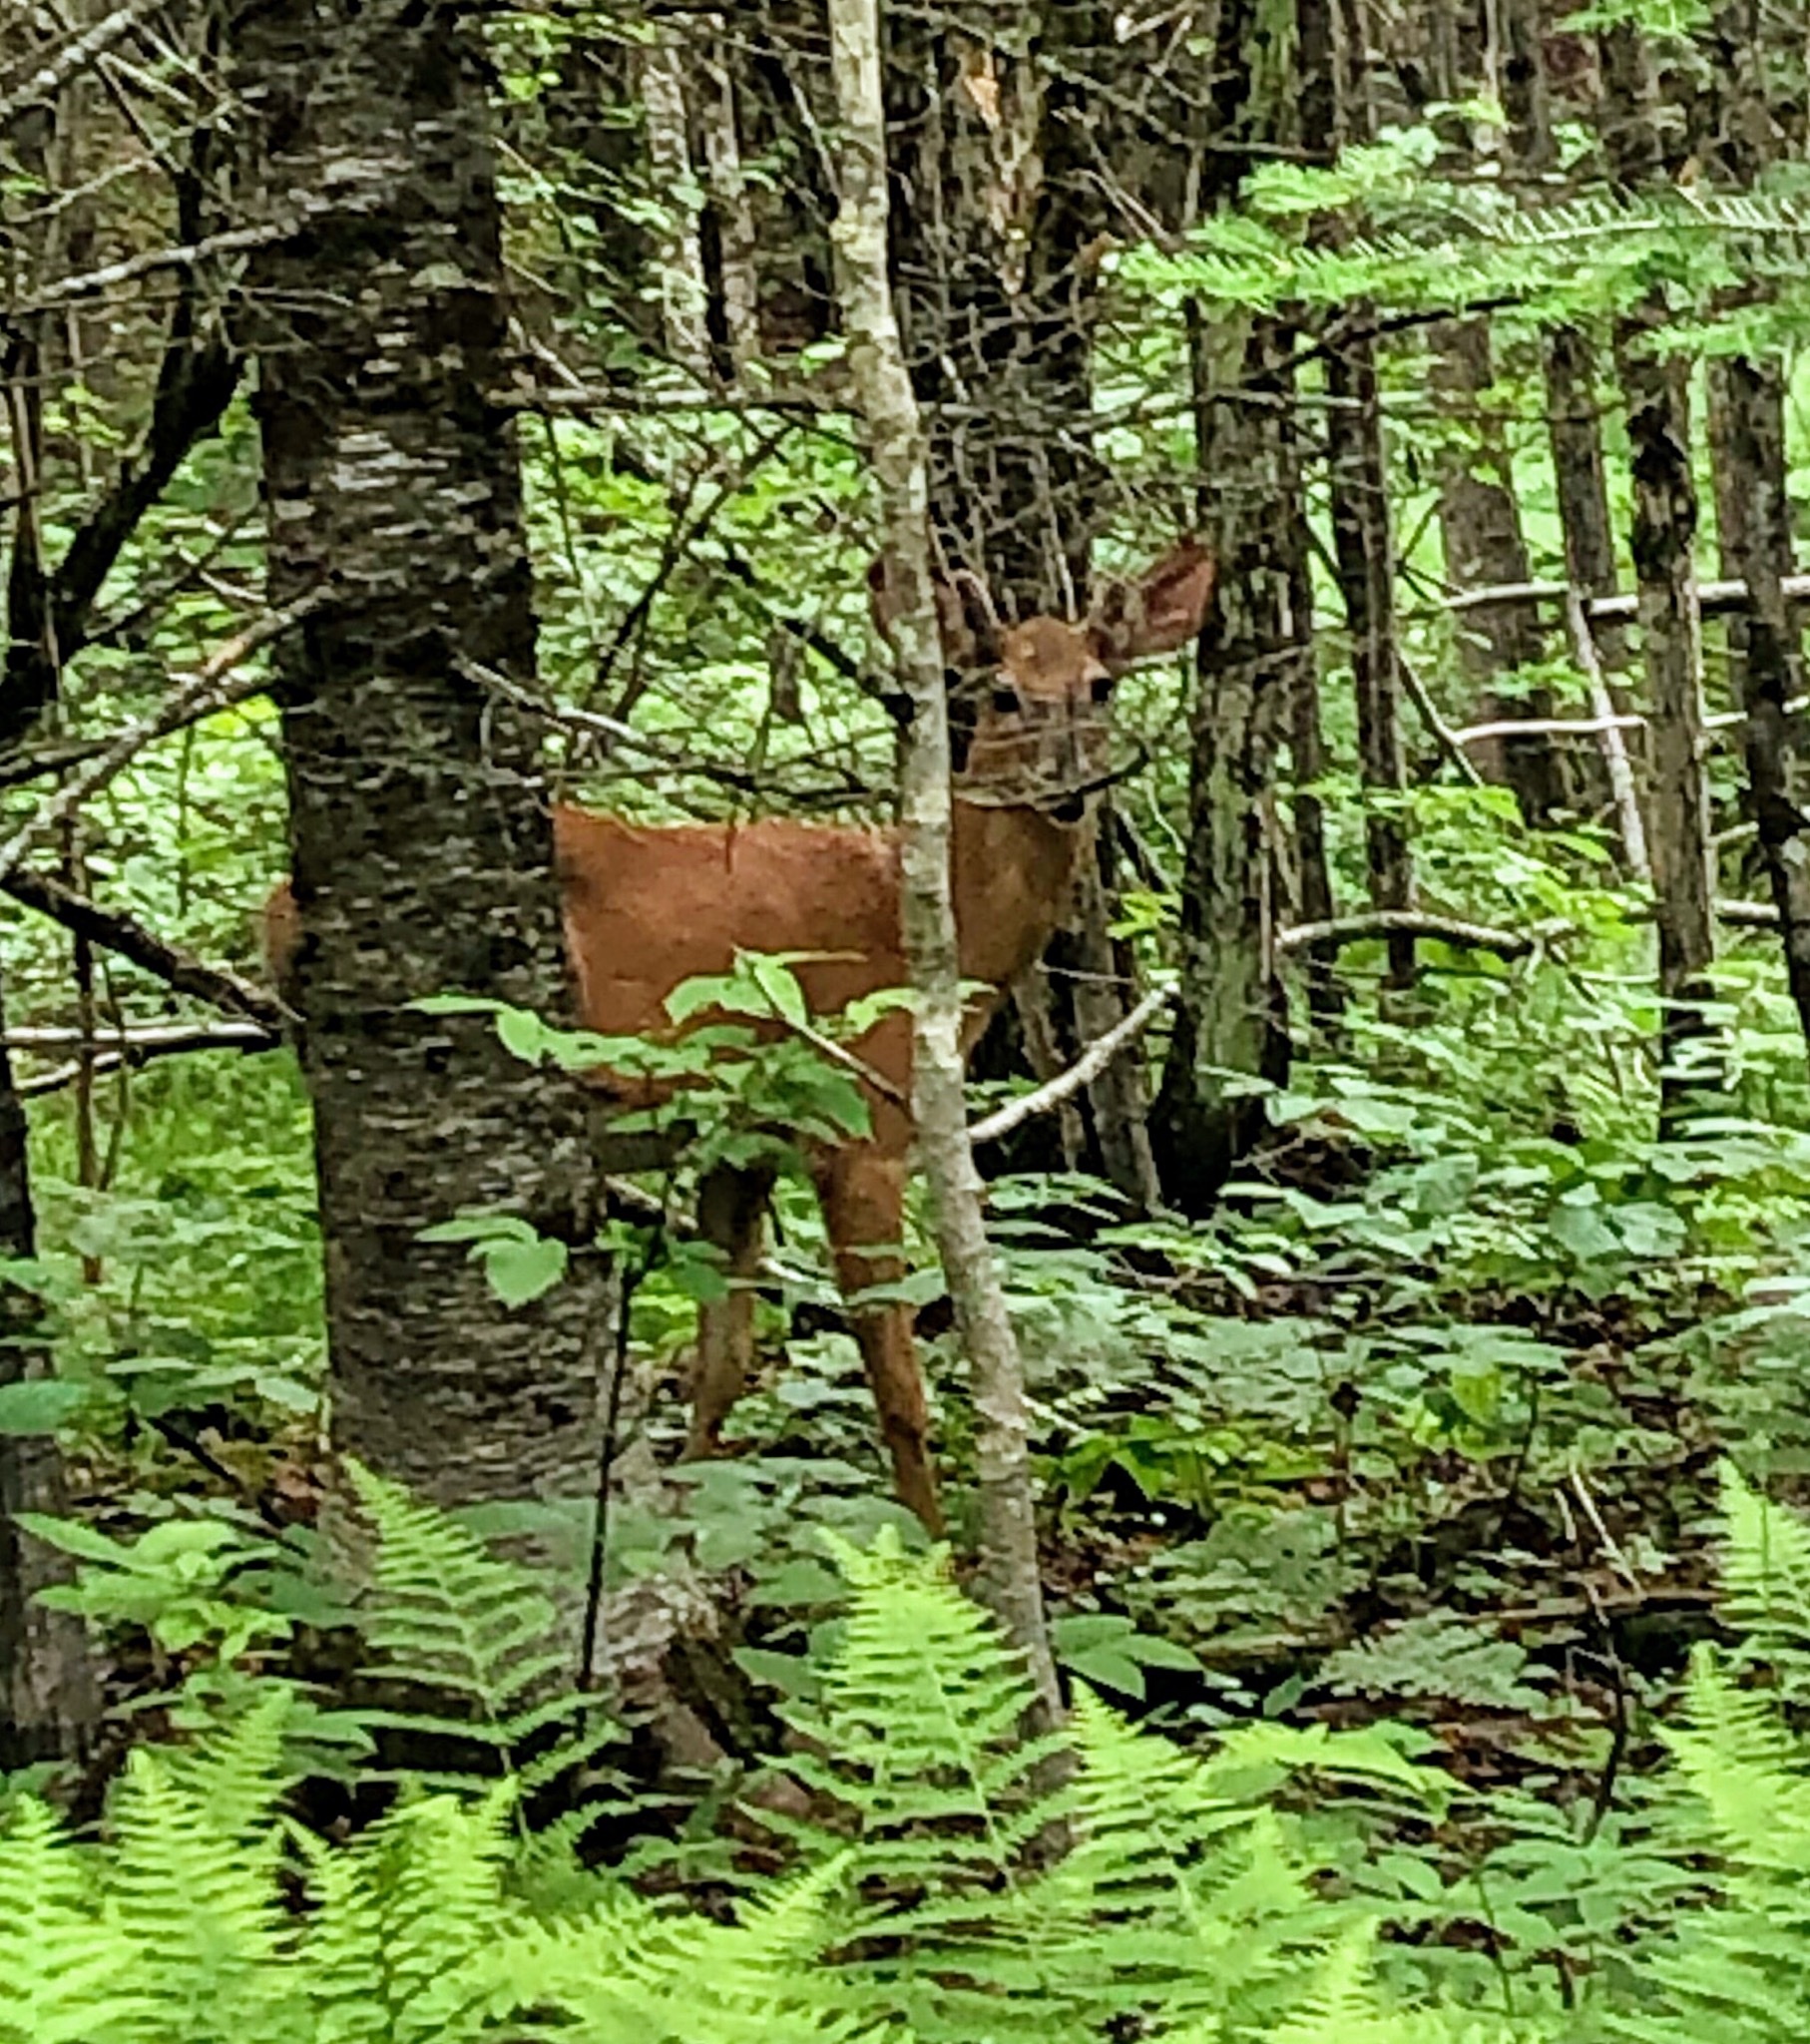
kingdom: Animalia
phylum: Chordata
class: Mammalia
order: Artiodactyla
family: Cervidae
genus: Odocoileus
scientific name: Odocoileus virginianus
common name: White-tailed deer
